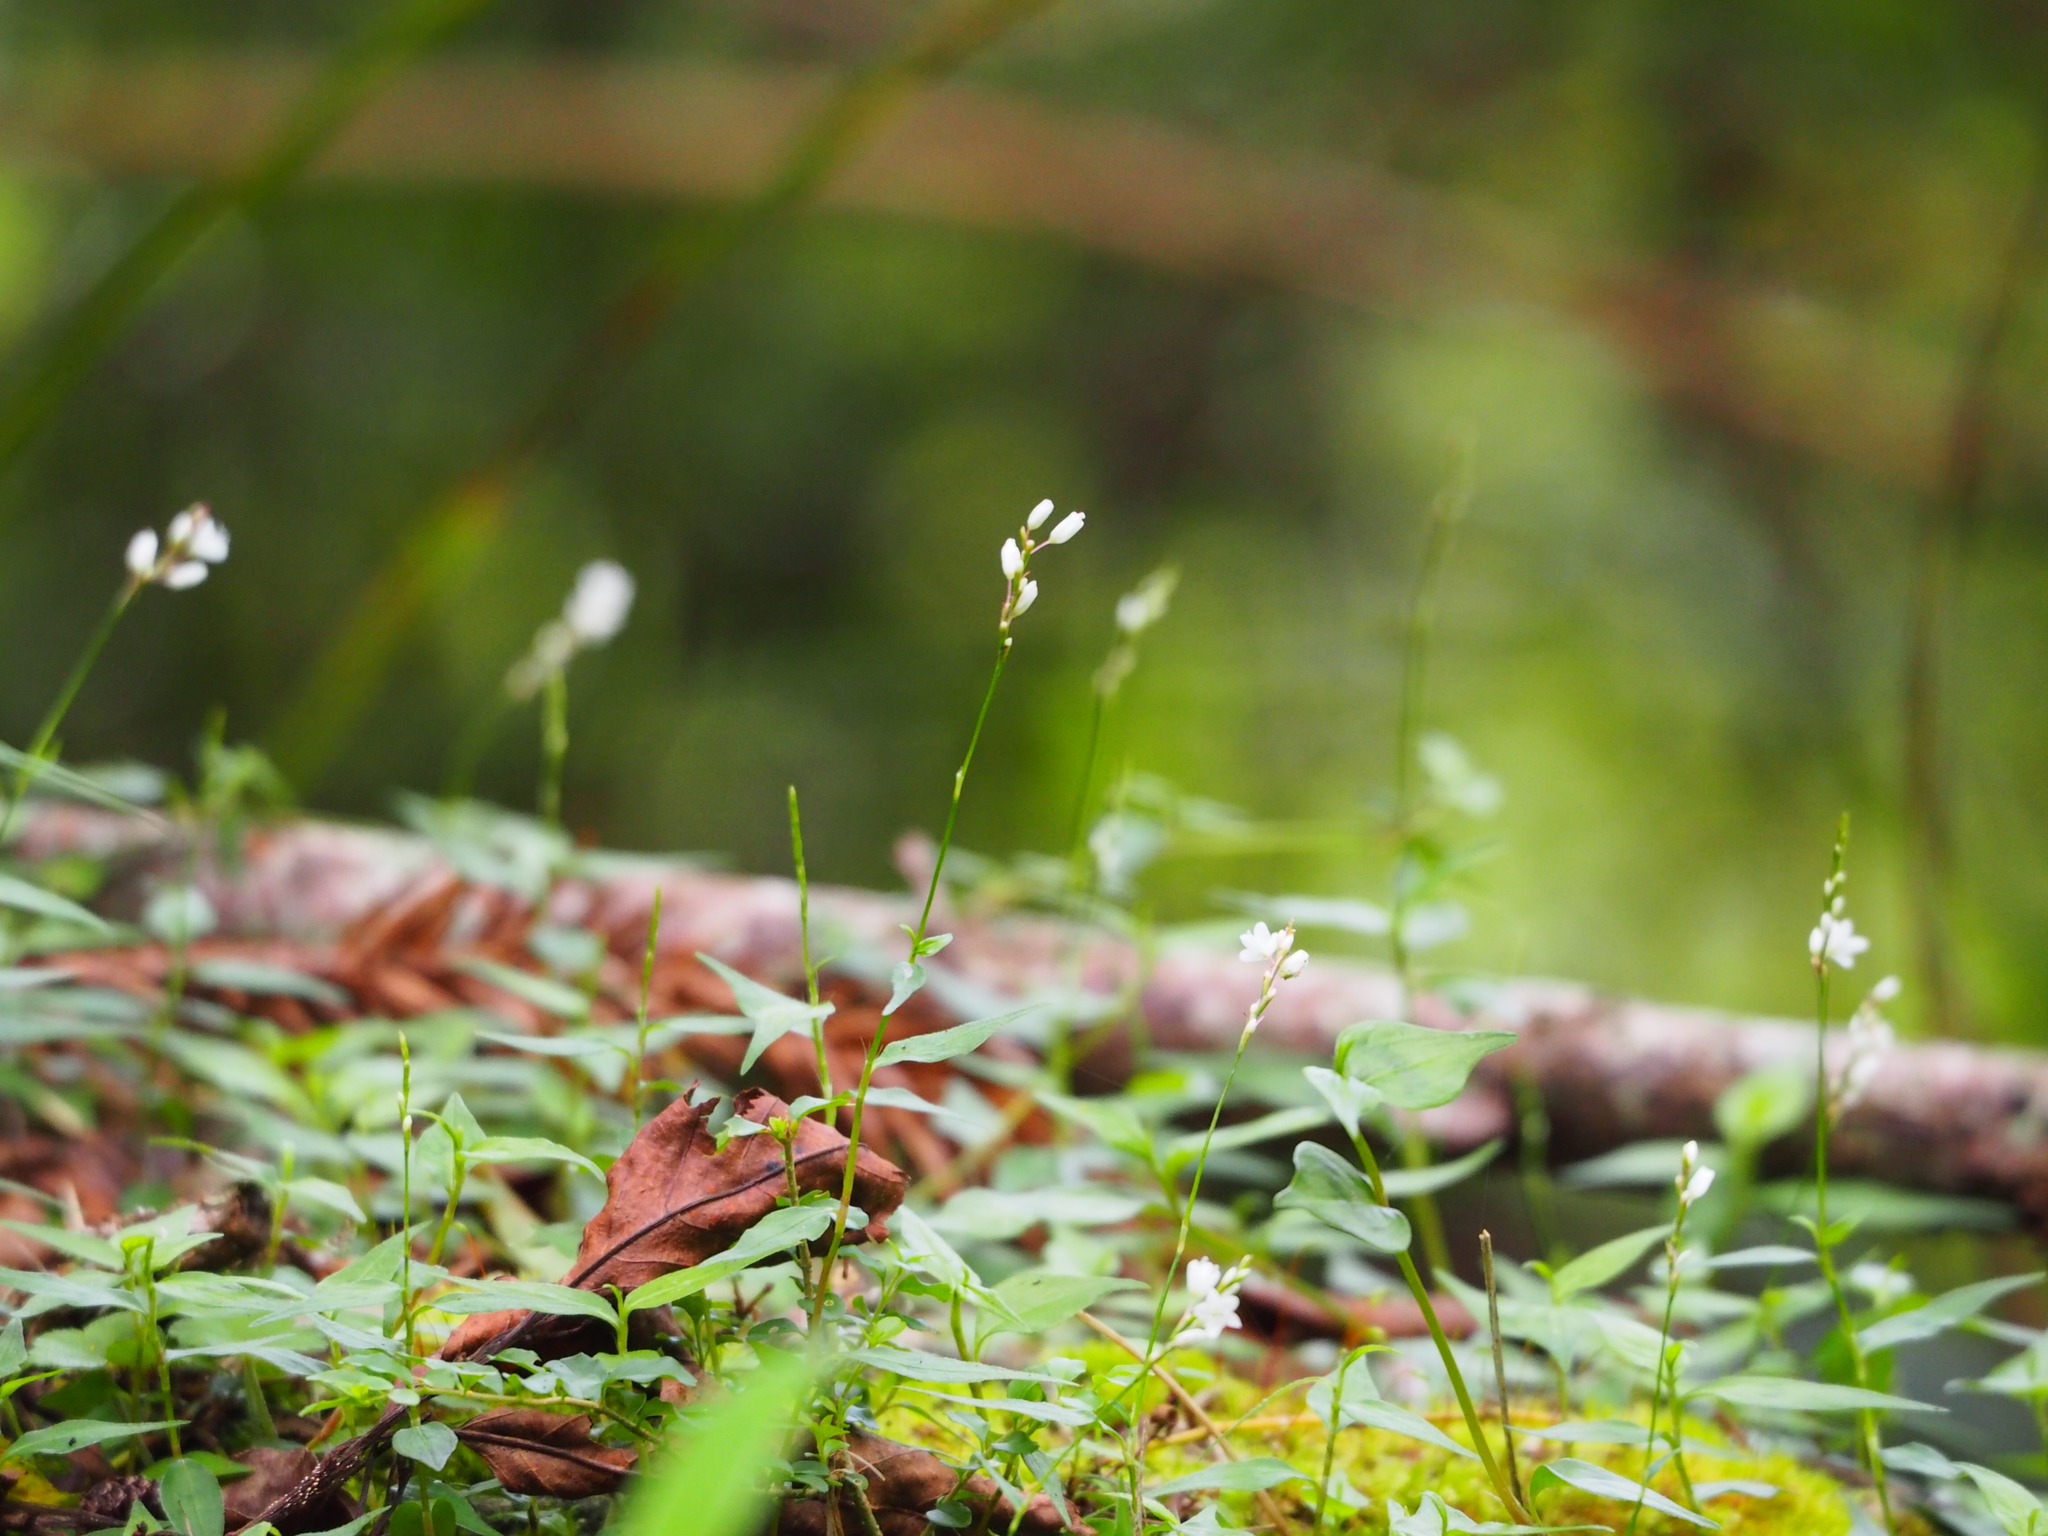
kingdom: Plantae
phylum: Tracheophyta
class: Magnoliopsida
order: Caryophyllales
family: Polygonaceae
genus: Persicaria
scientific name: Persicaria posumbu
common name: Oriental lady's thumb
